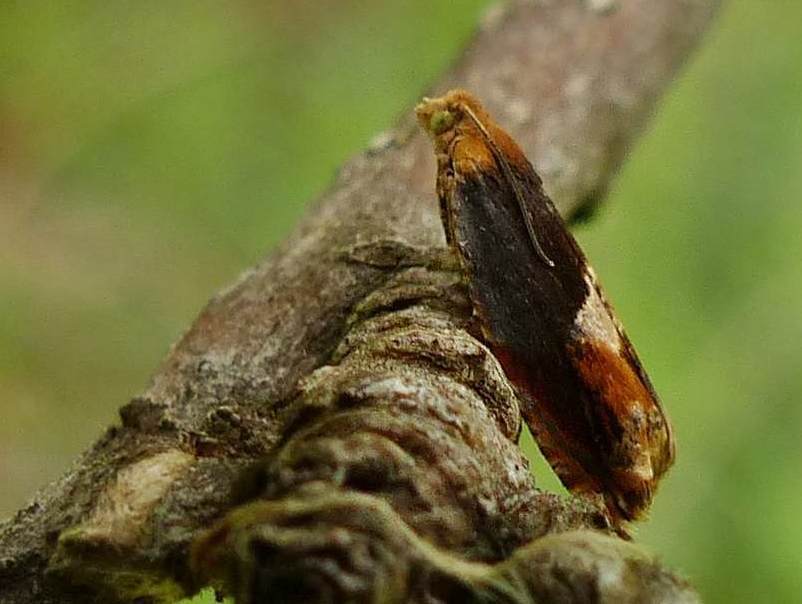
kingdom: Animalia
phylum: Arthropoda
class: Insecta
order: Lepidoptera
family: Tortricidae
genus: Ancylis
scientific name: Ancylis muricana
